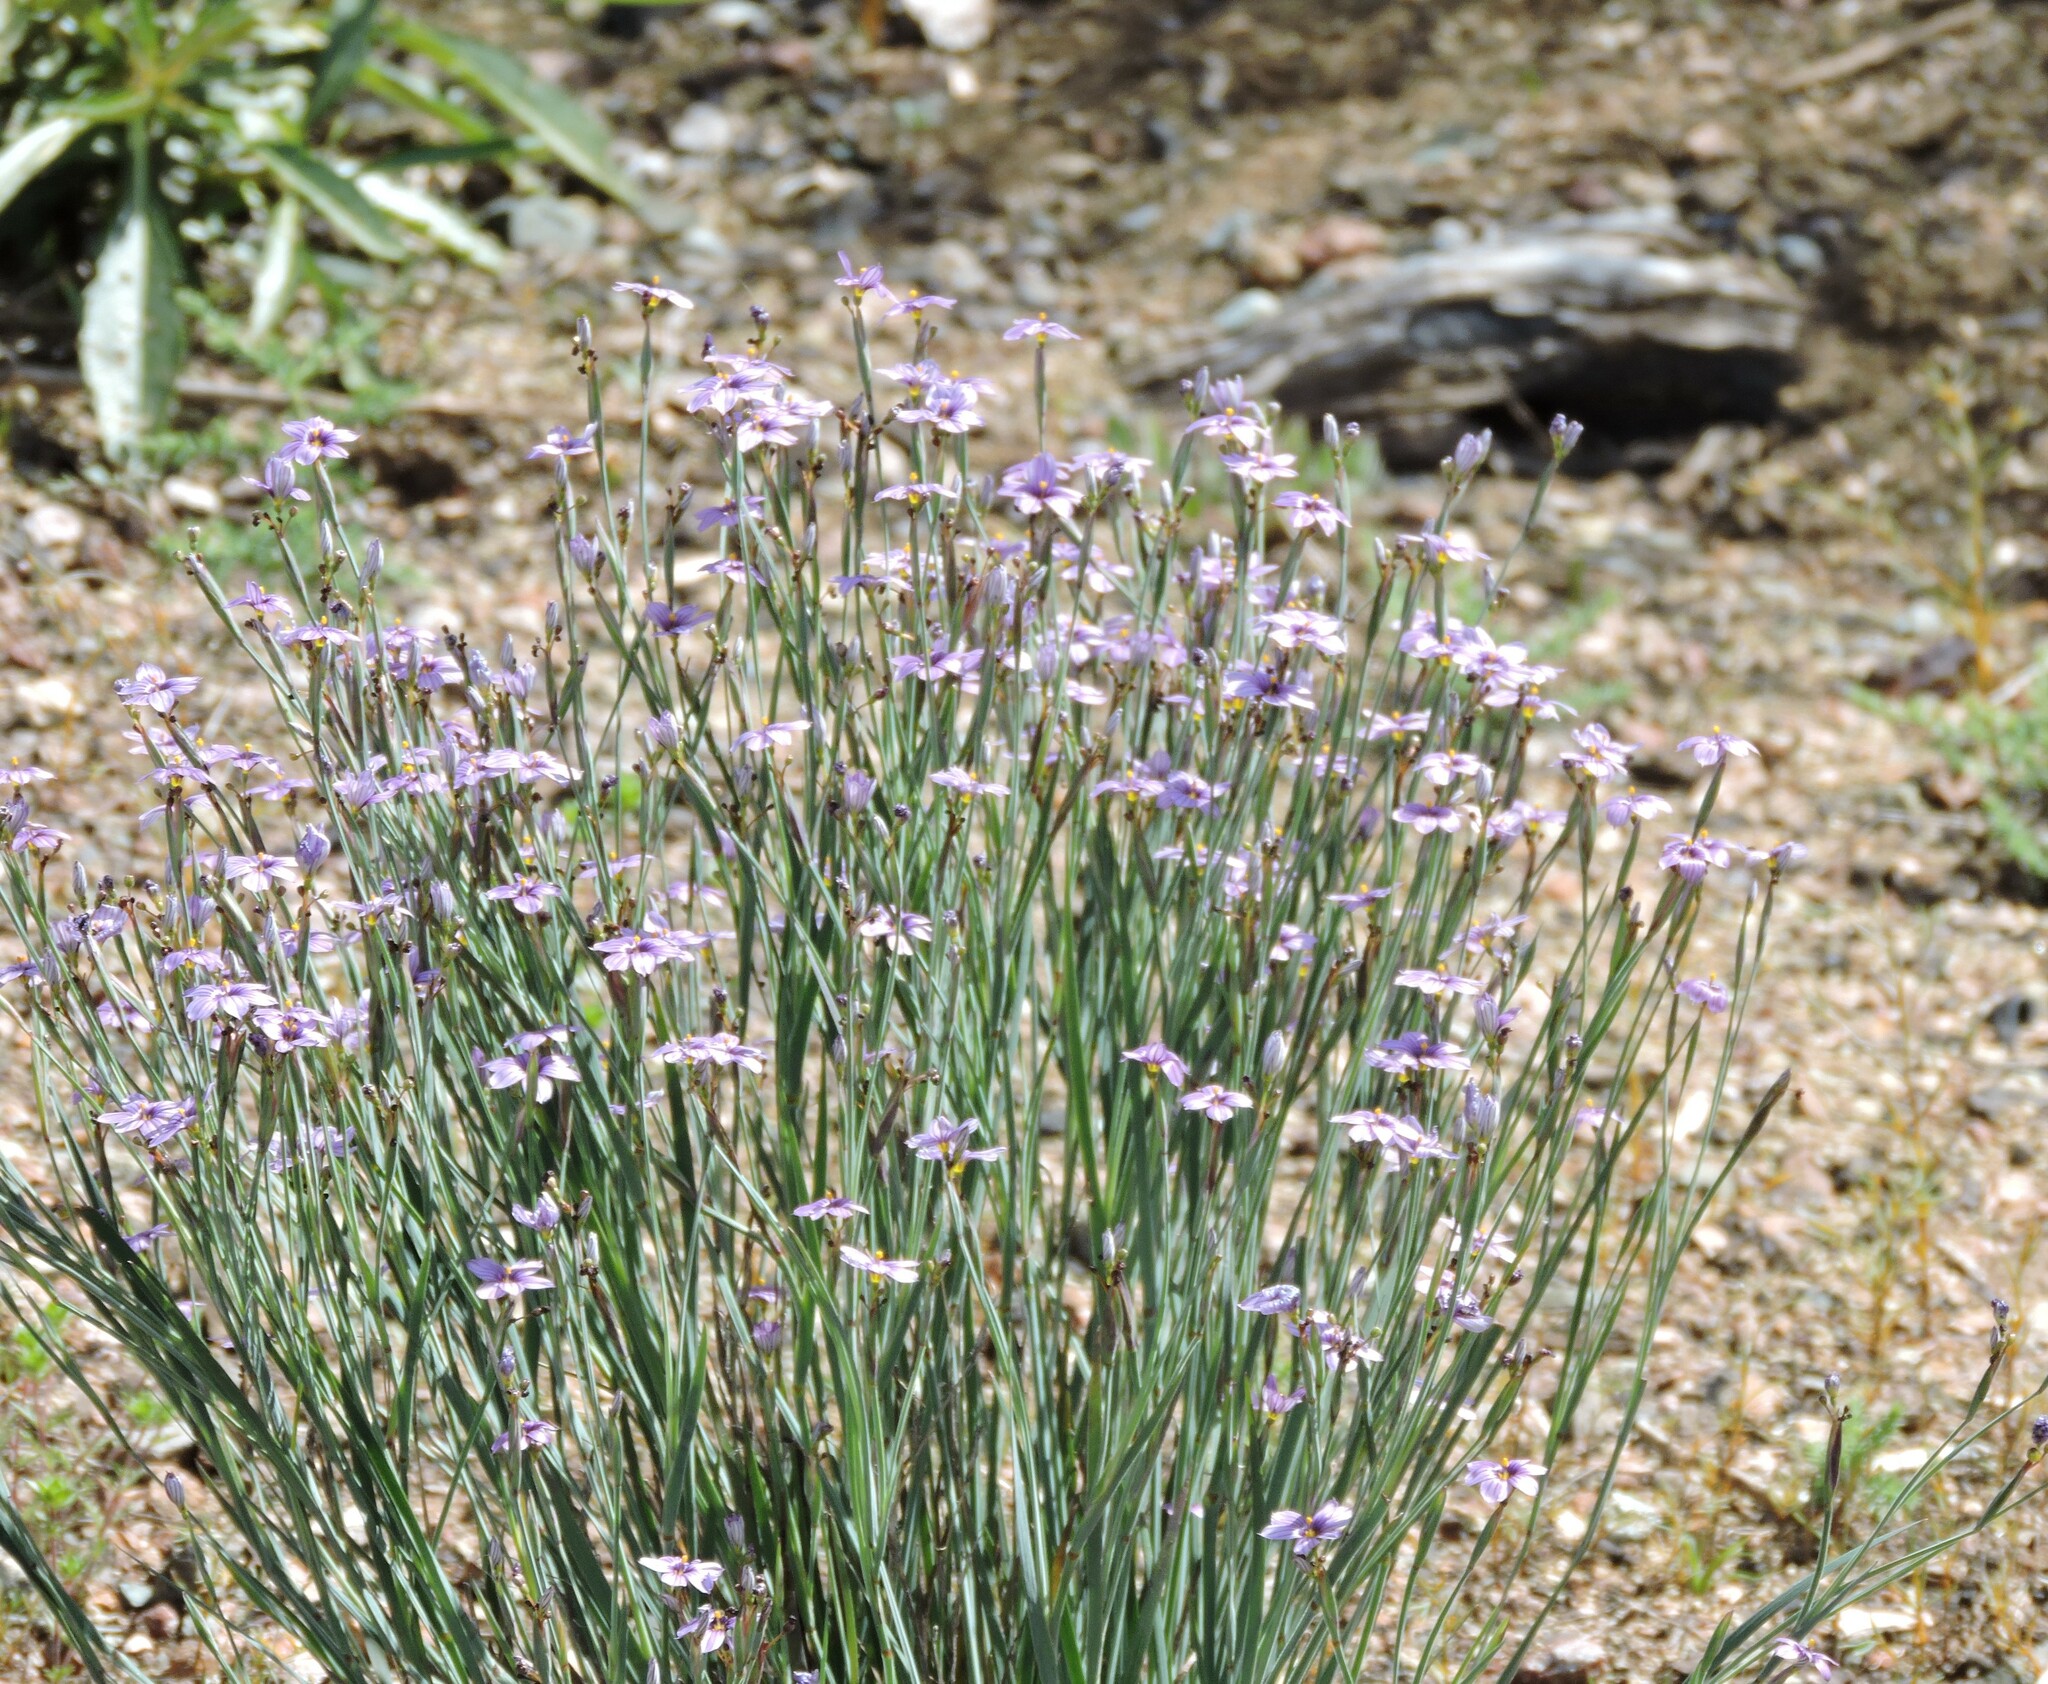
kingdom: Plantae
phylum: Tracheophyta
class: Liliopsida
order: Asparagales
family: Iridaceae
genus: Sisyrinchium
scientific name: Sisyrinchium bellum
